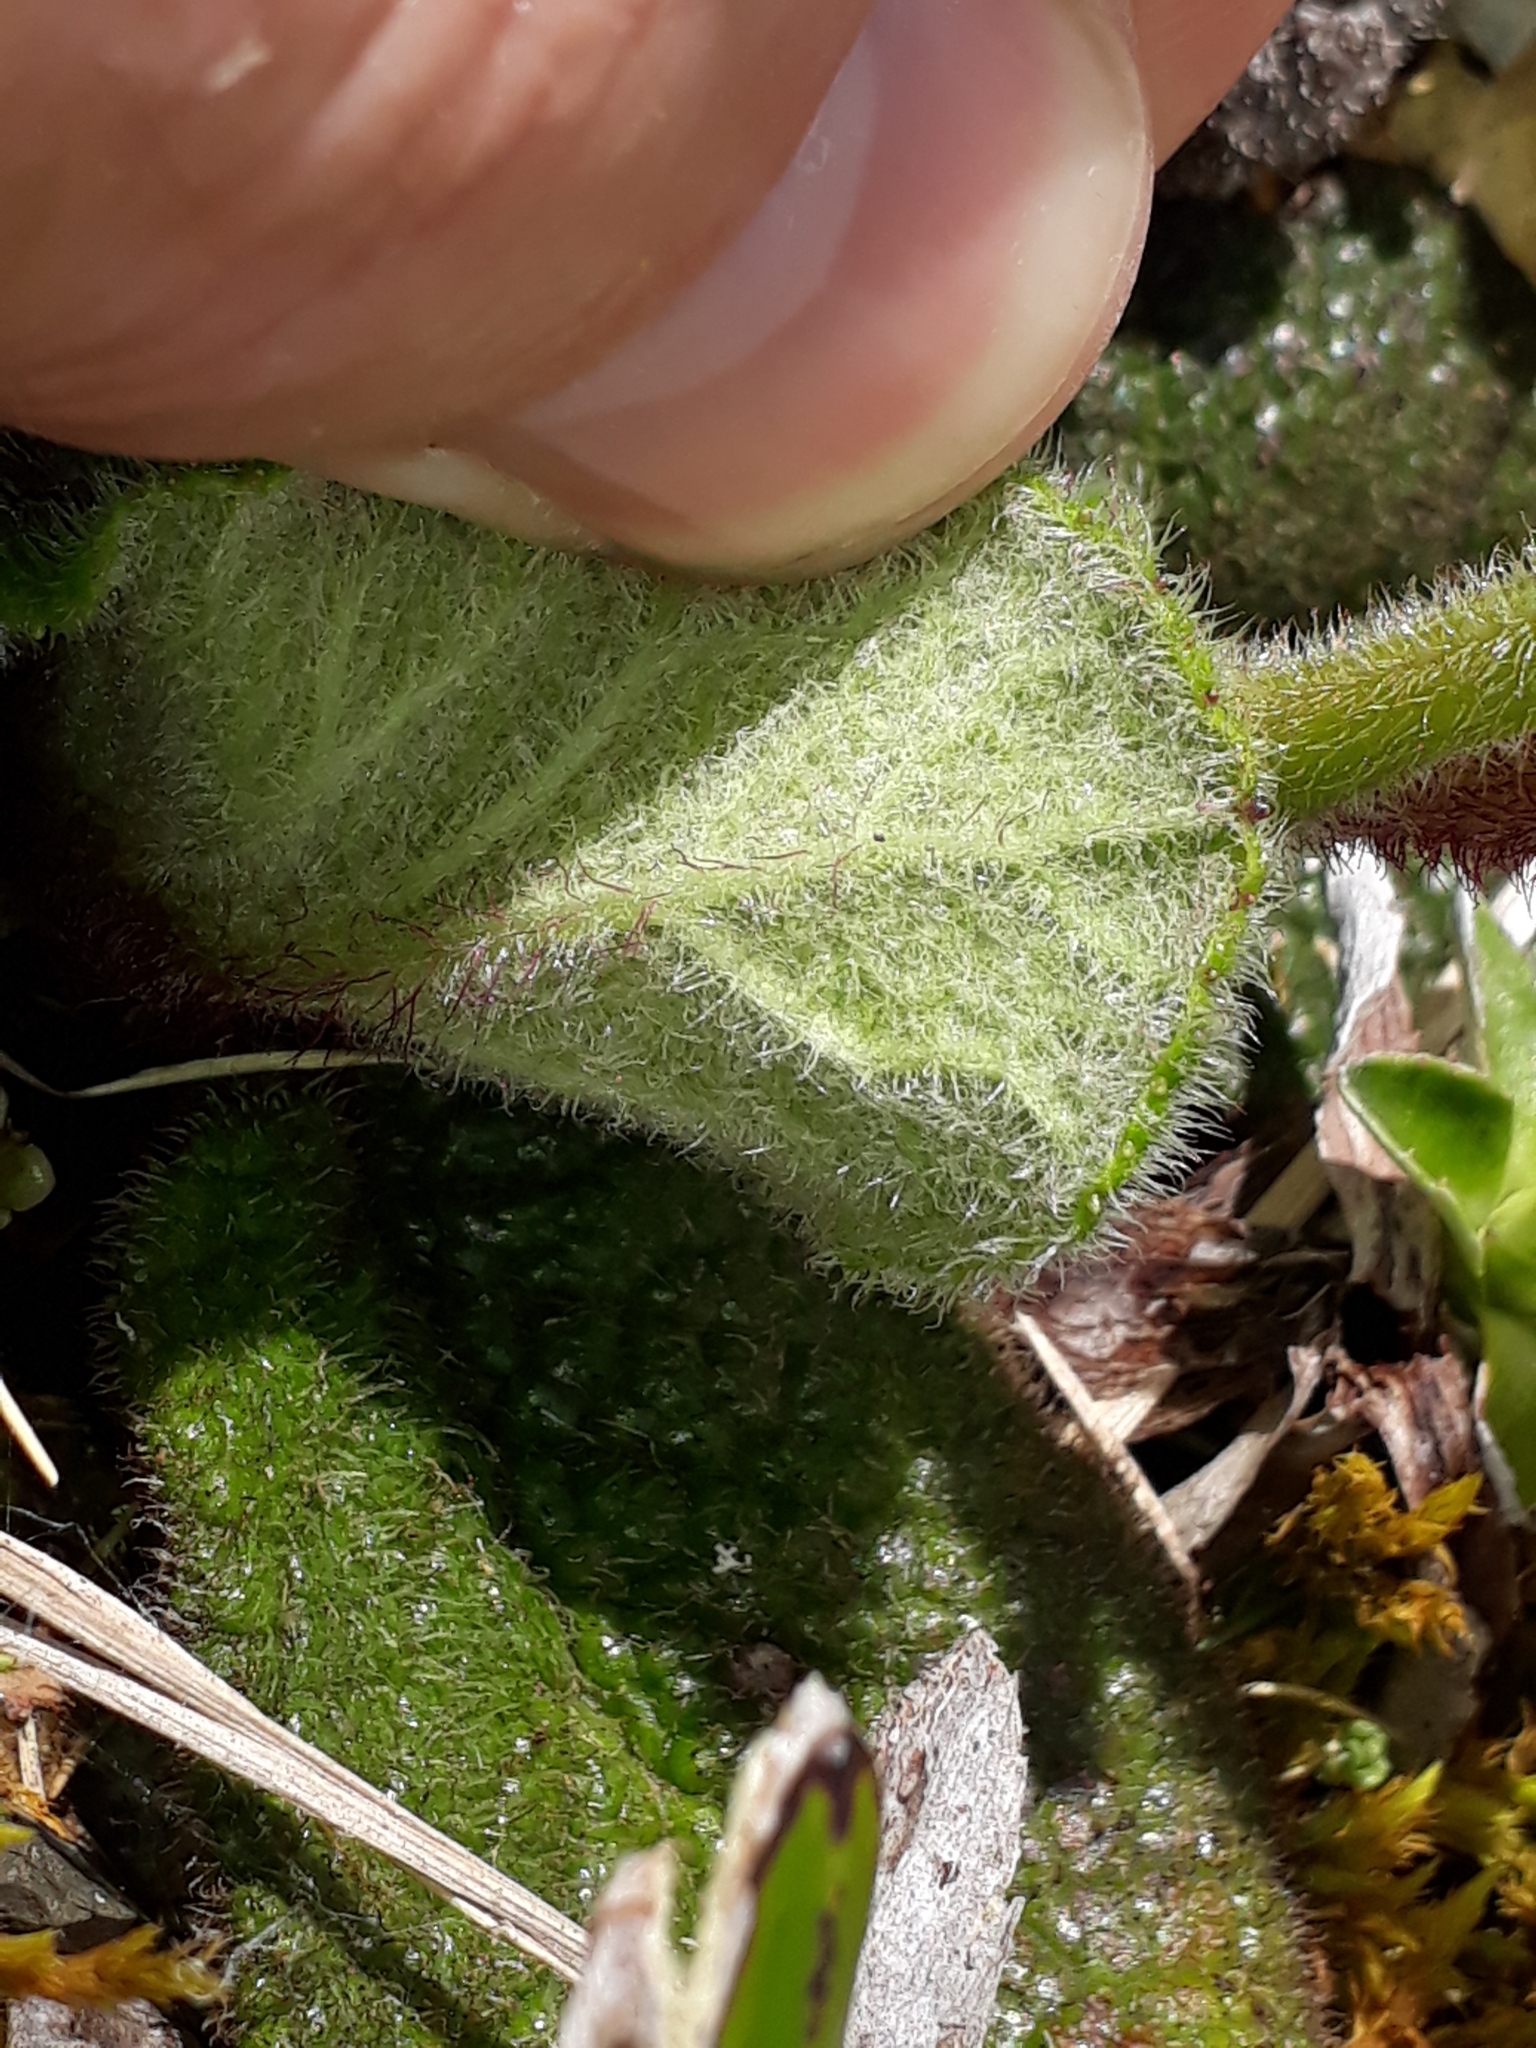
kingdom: Plantae
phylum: Tracheophyta
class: Magnoliopsida
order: Asterales
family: Asteraceae
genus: Brachyglottis
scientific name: Brachyglottis lagopus
